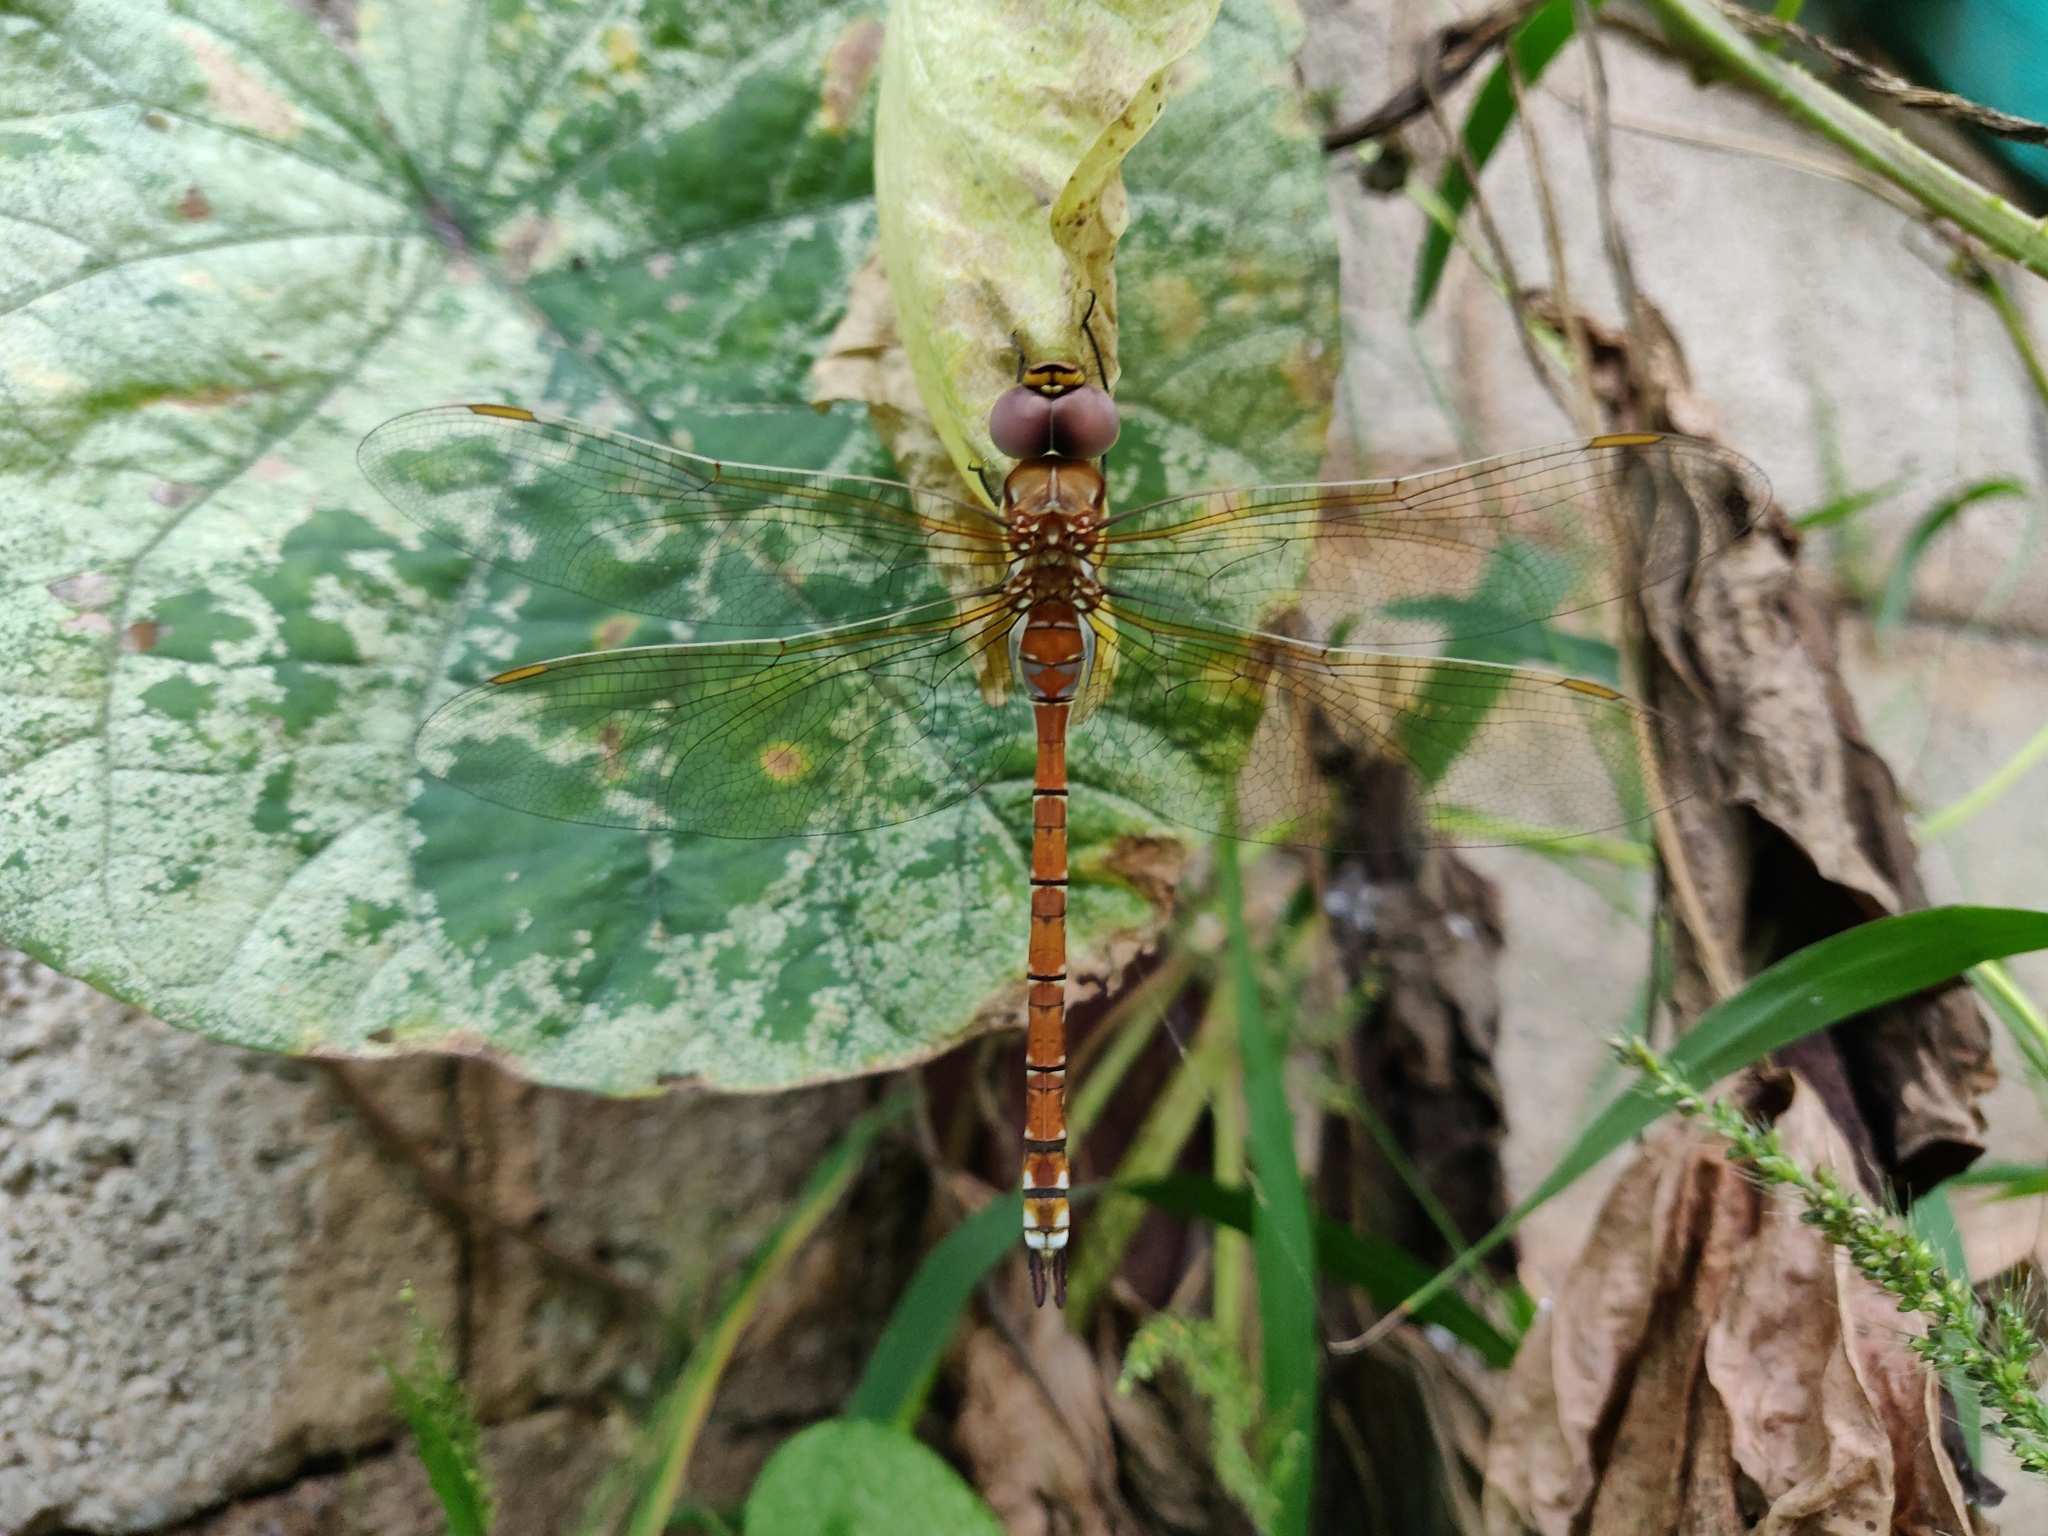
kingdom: Animalia
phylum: Arthropoda
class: Insecta
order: Odonata
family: Aeshnidae
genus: Anaciaeschna
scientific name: Anaciaeschna jaspidea
